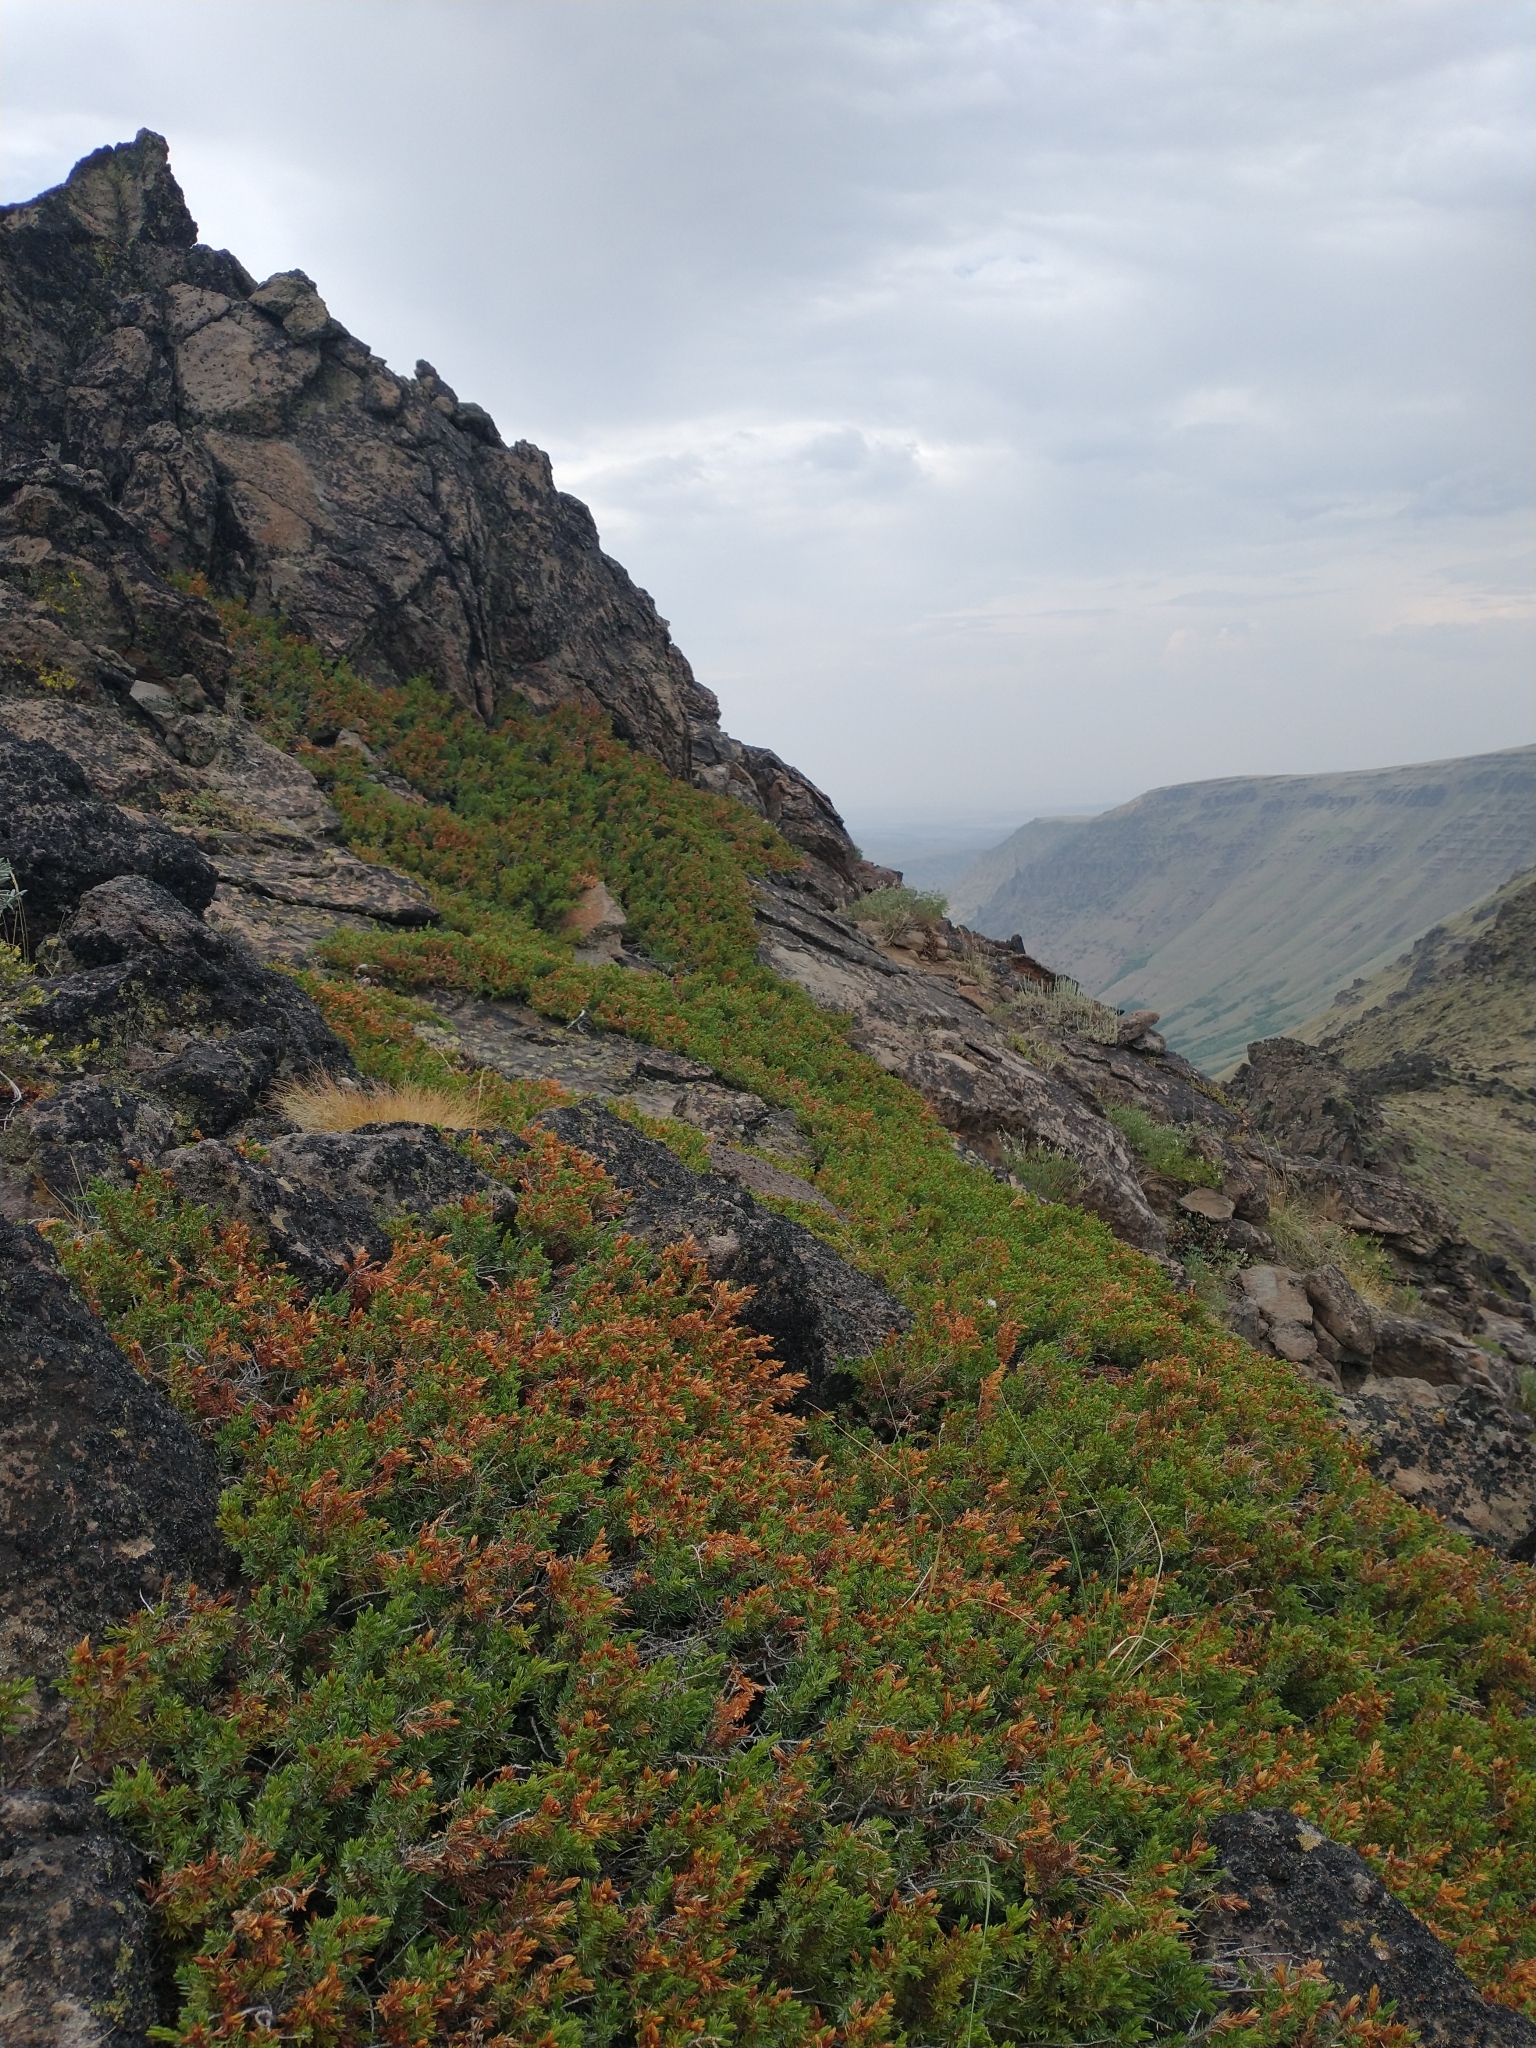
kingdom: Plantae
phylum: Tracheophyta
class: Pinopsida
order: Pinales
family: Cupressaceae
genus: Juniperus
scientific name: Juniperus communis
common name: Common juniper
